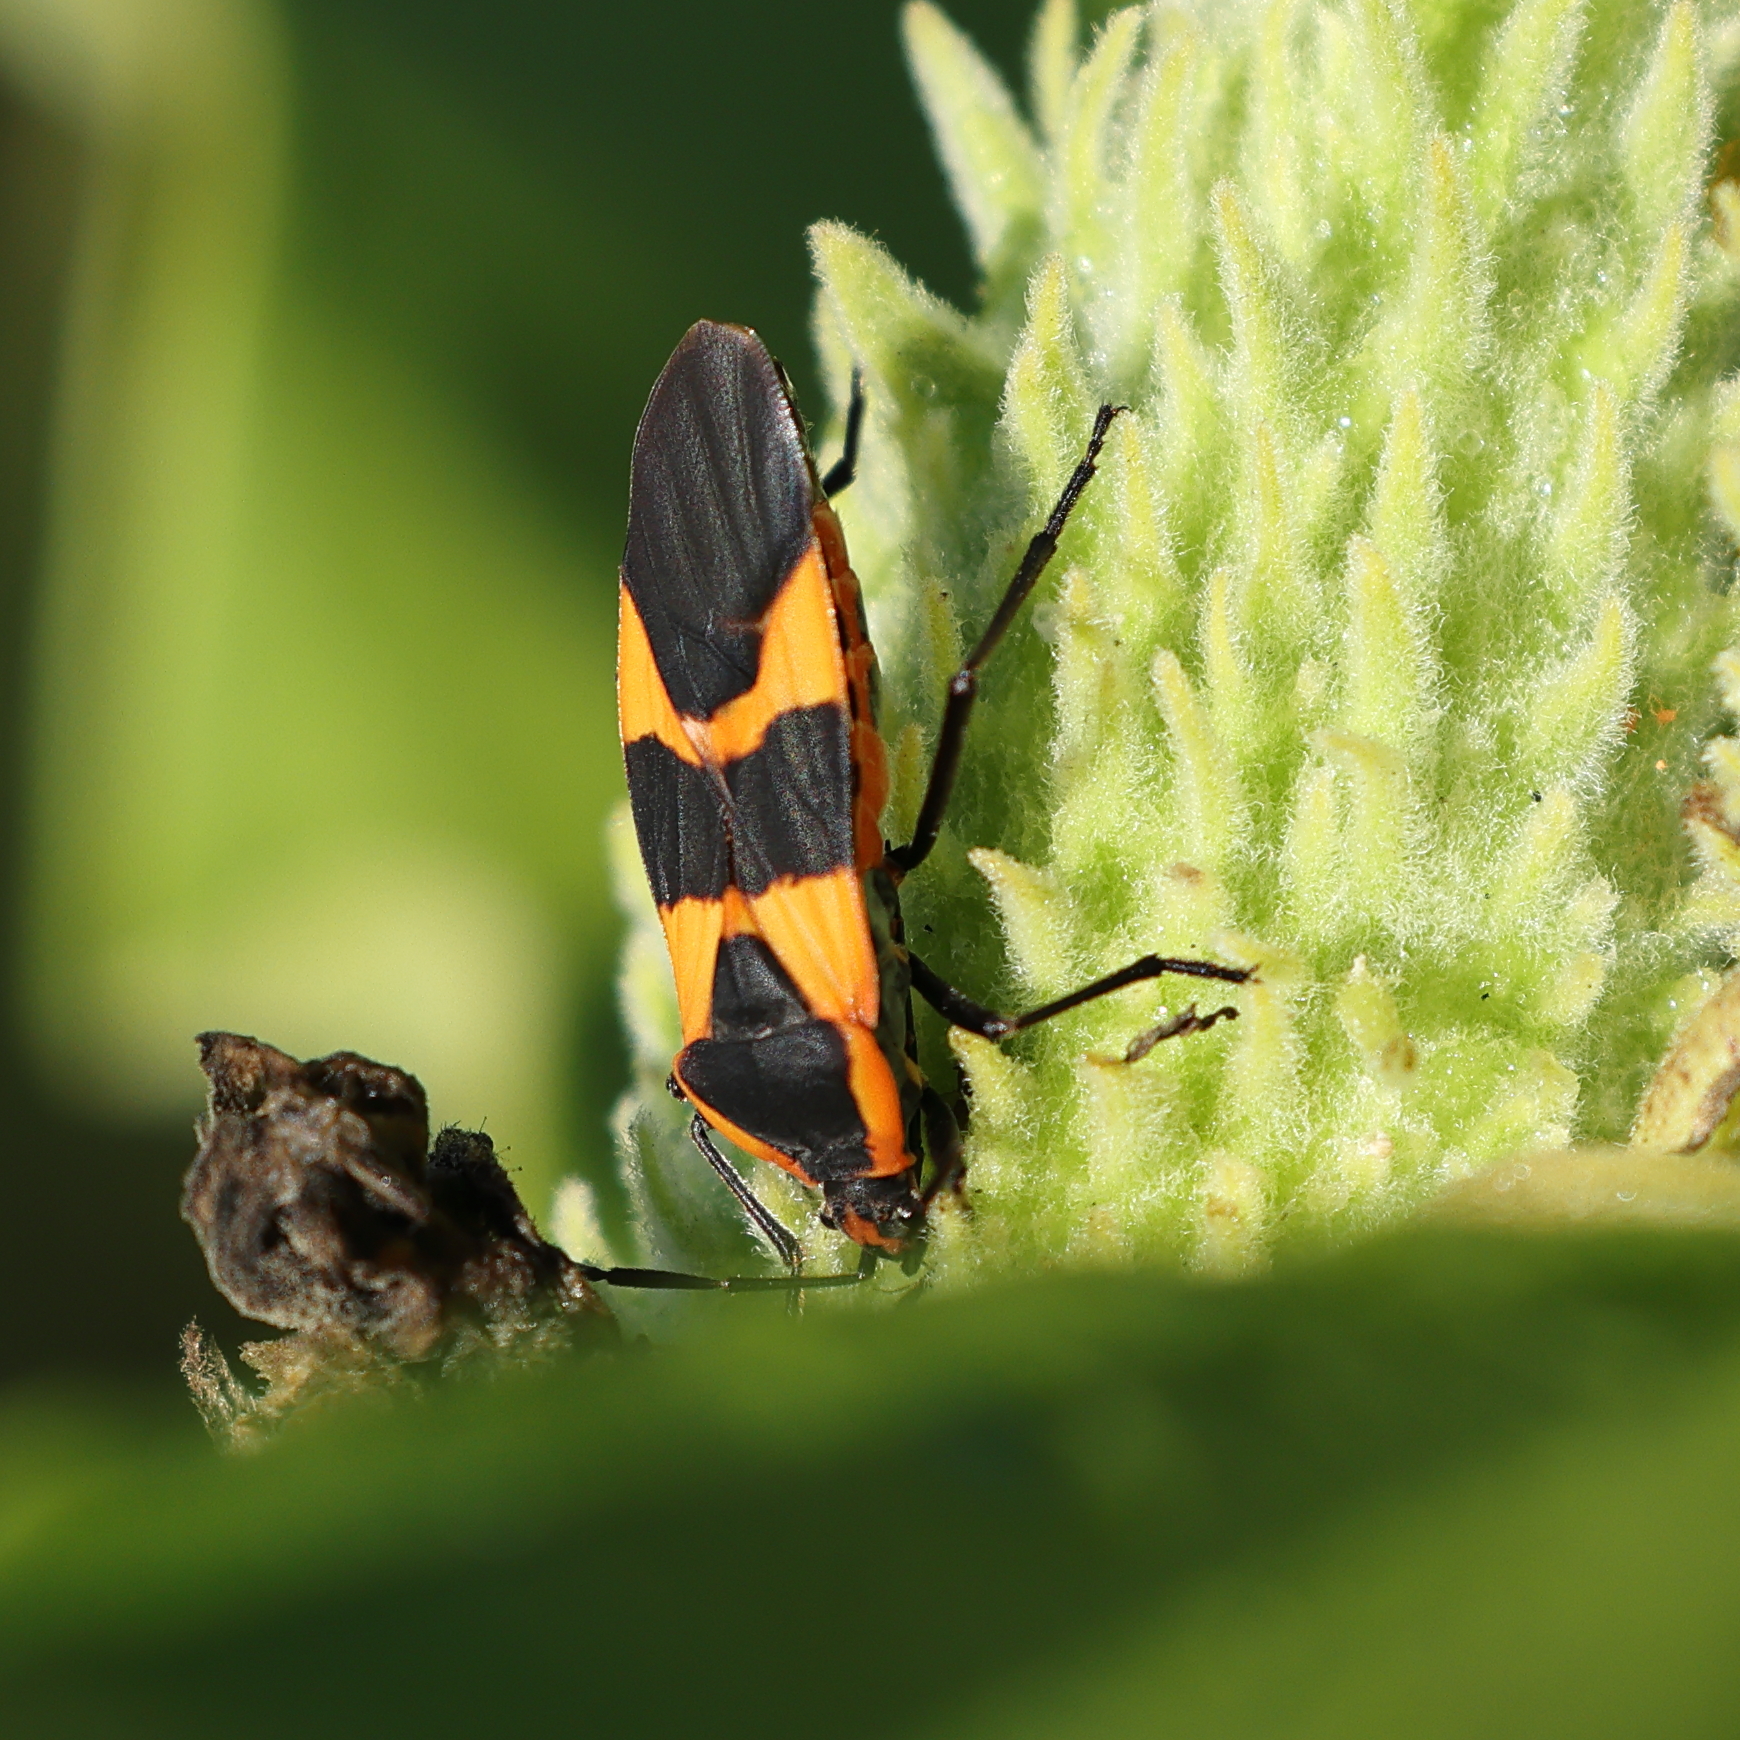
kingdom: Animalia
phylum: Arthropoda
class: Insecta
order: Hemiptera
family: Lygaeidae
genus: Oncopeltus
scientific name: Oncopeltus fasciatus
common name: Large milkweed bug
